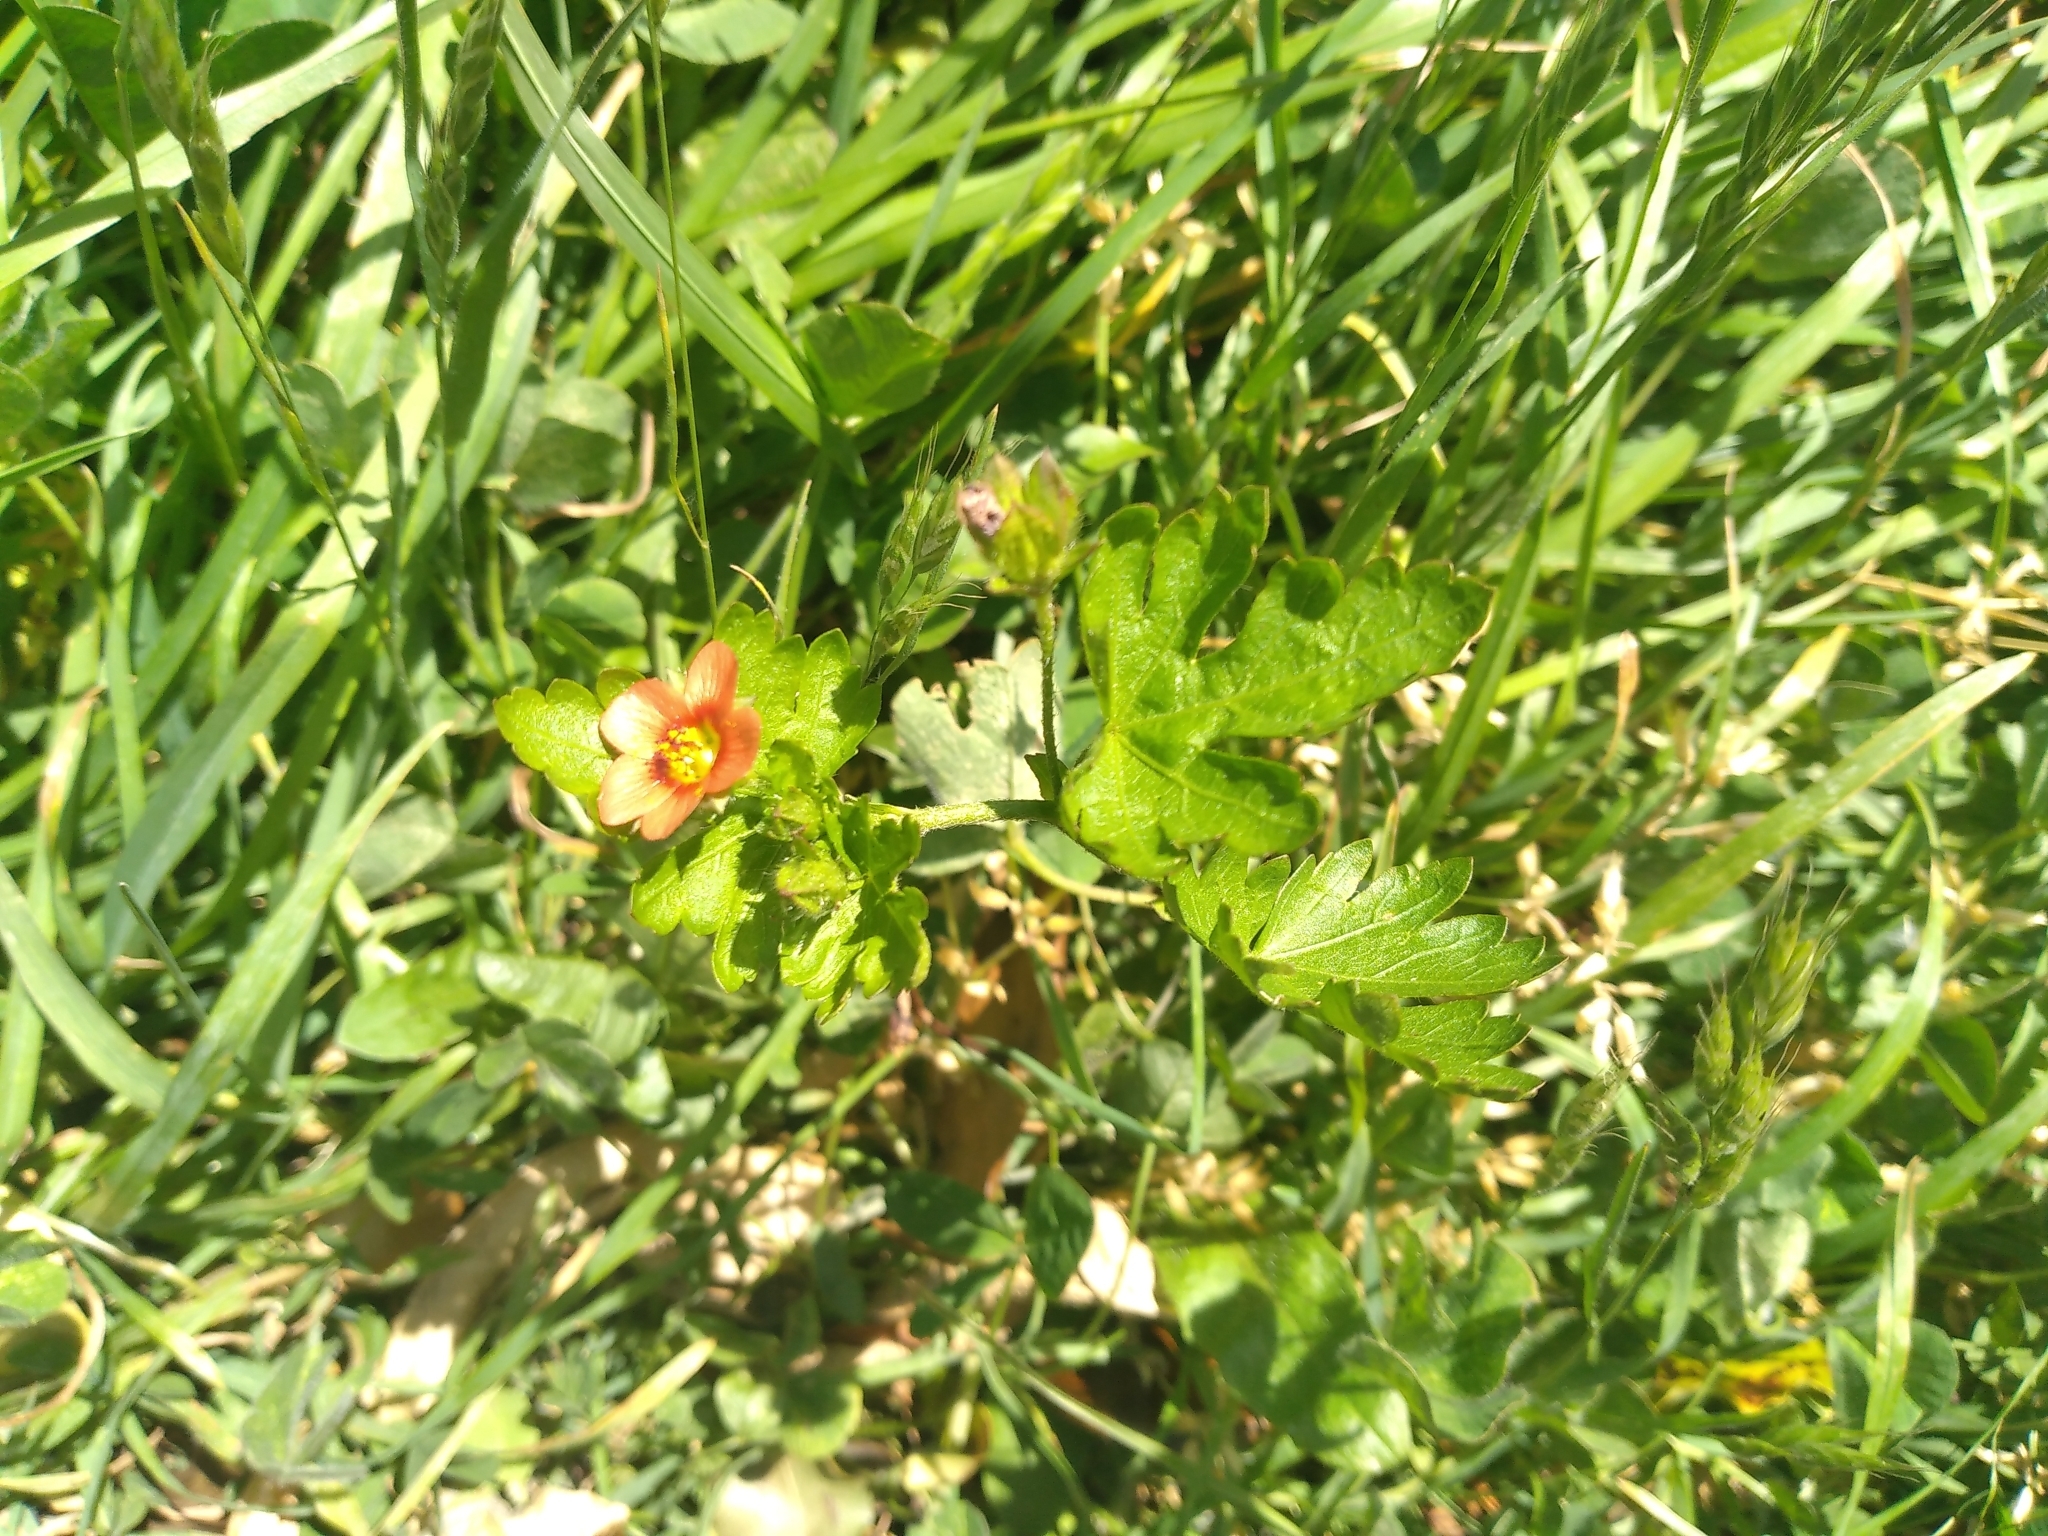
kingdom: Plantae
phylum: Tracheophyta
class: Magnoliopsida
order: Malvales
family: Malvaceae
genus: Modiola
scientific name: Modiola caroliniana
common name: Carolina bristlemallow
